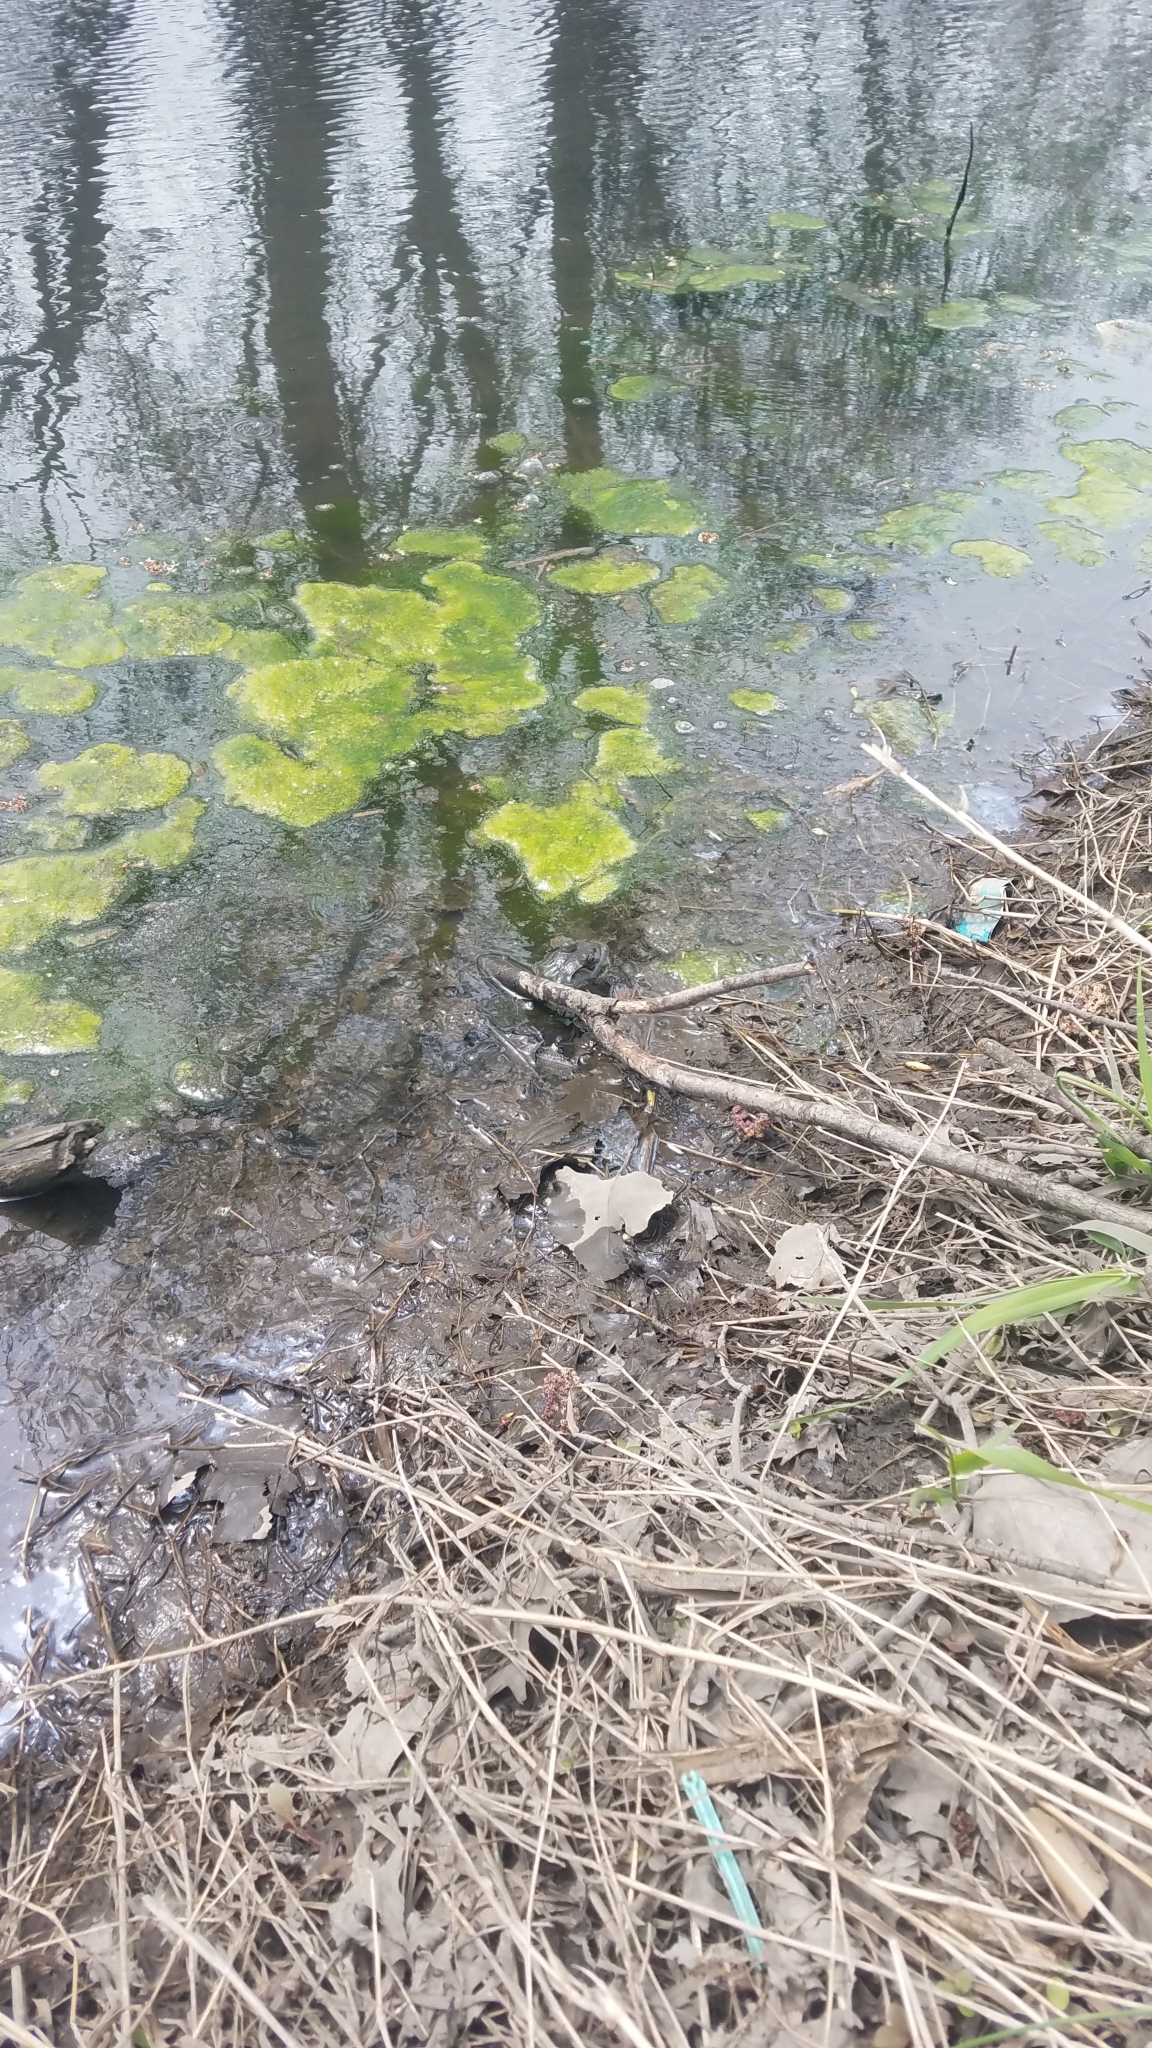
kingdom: Animalia
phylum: Chordata
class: Amphibia
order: Anura
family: Ranidae
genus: Lithobates
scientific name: Lithobates catesbeianus
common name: American bullfrog
